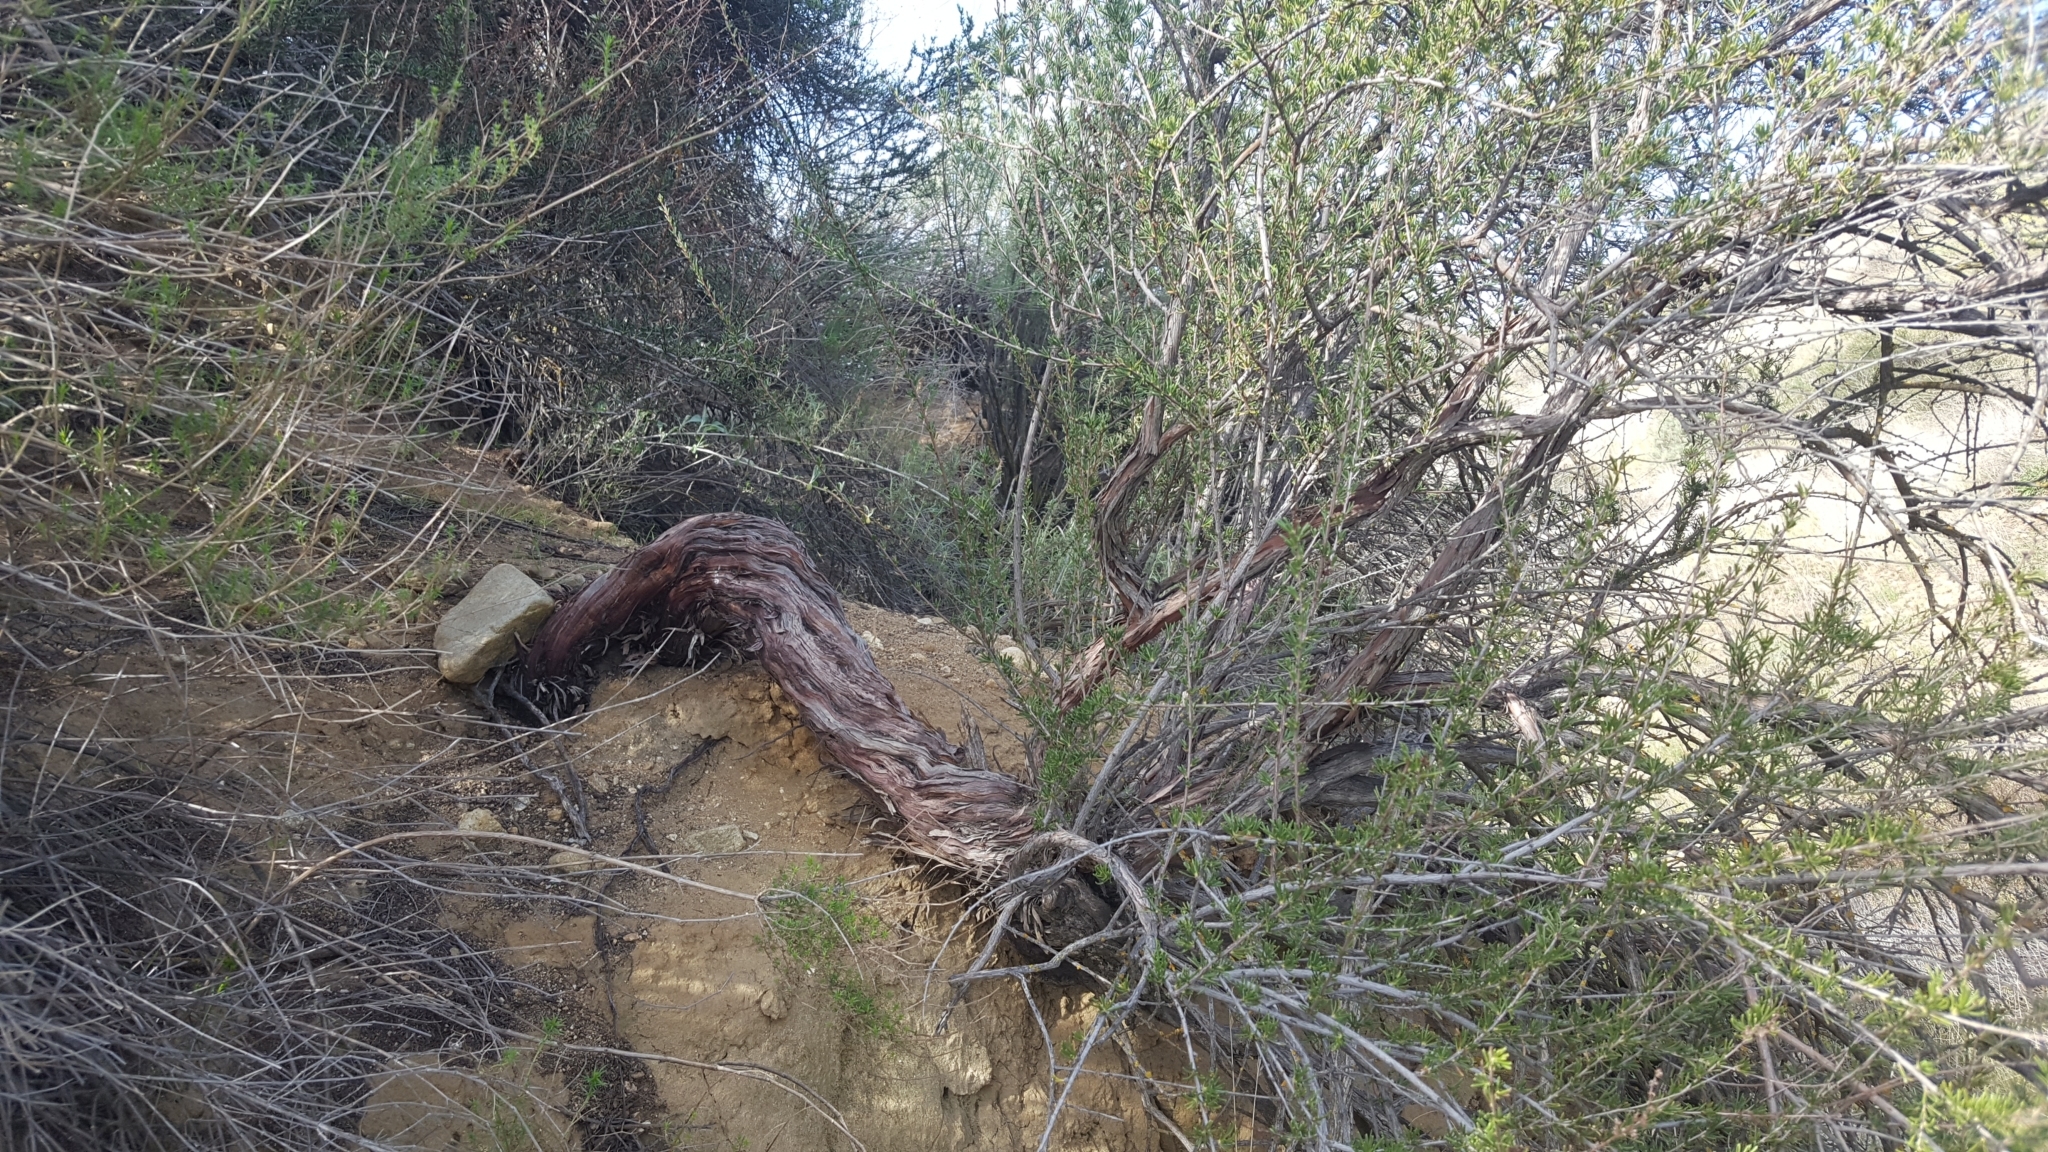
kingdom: Plantae
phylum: Tracheophyta
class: Magnoliopsida
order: Rosales
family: Rosaceae
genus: Adenostoma
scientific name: Adenostoma fasciculatum
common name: Chamise
